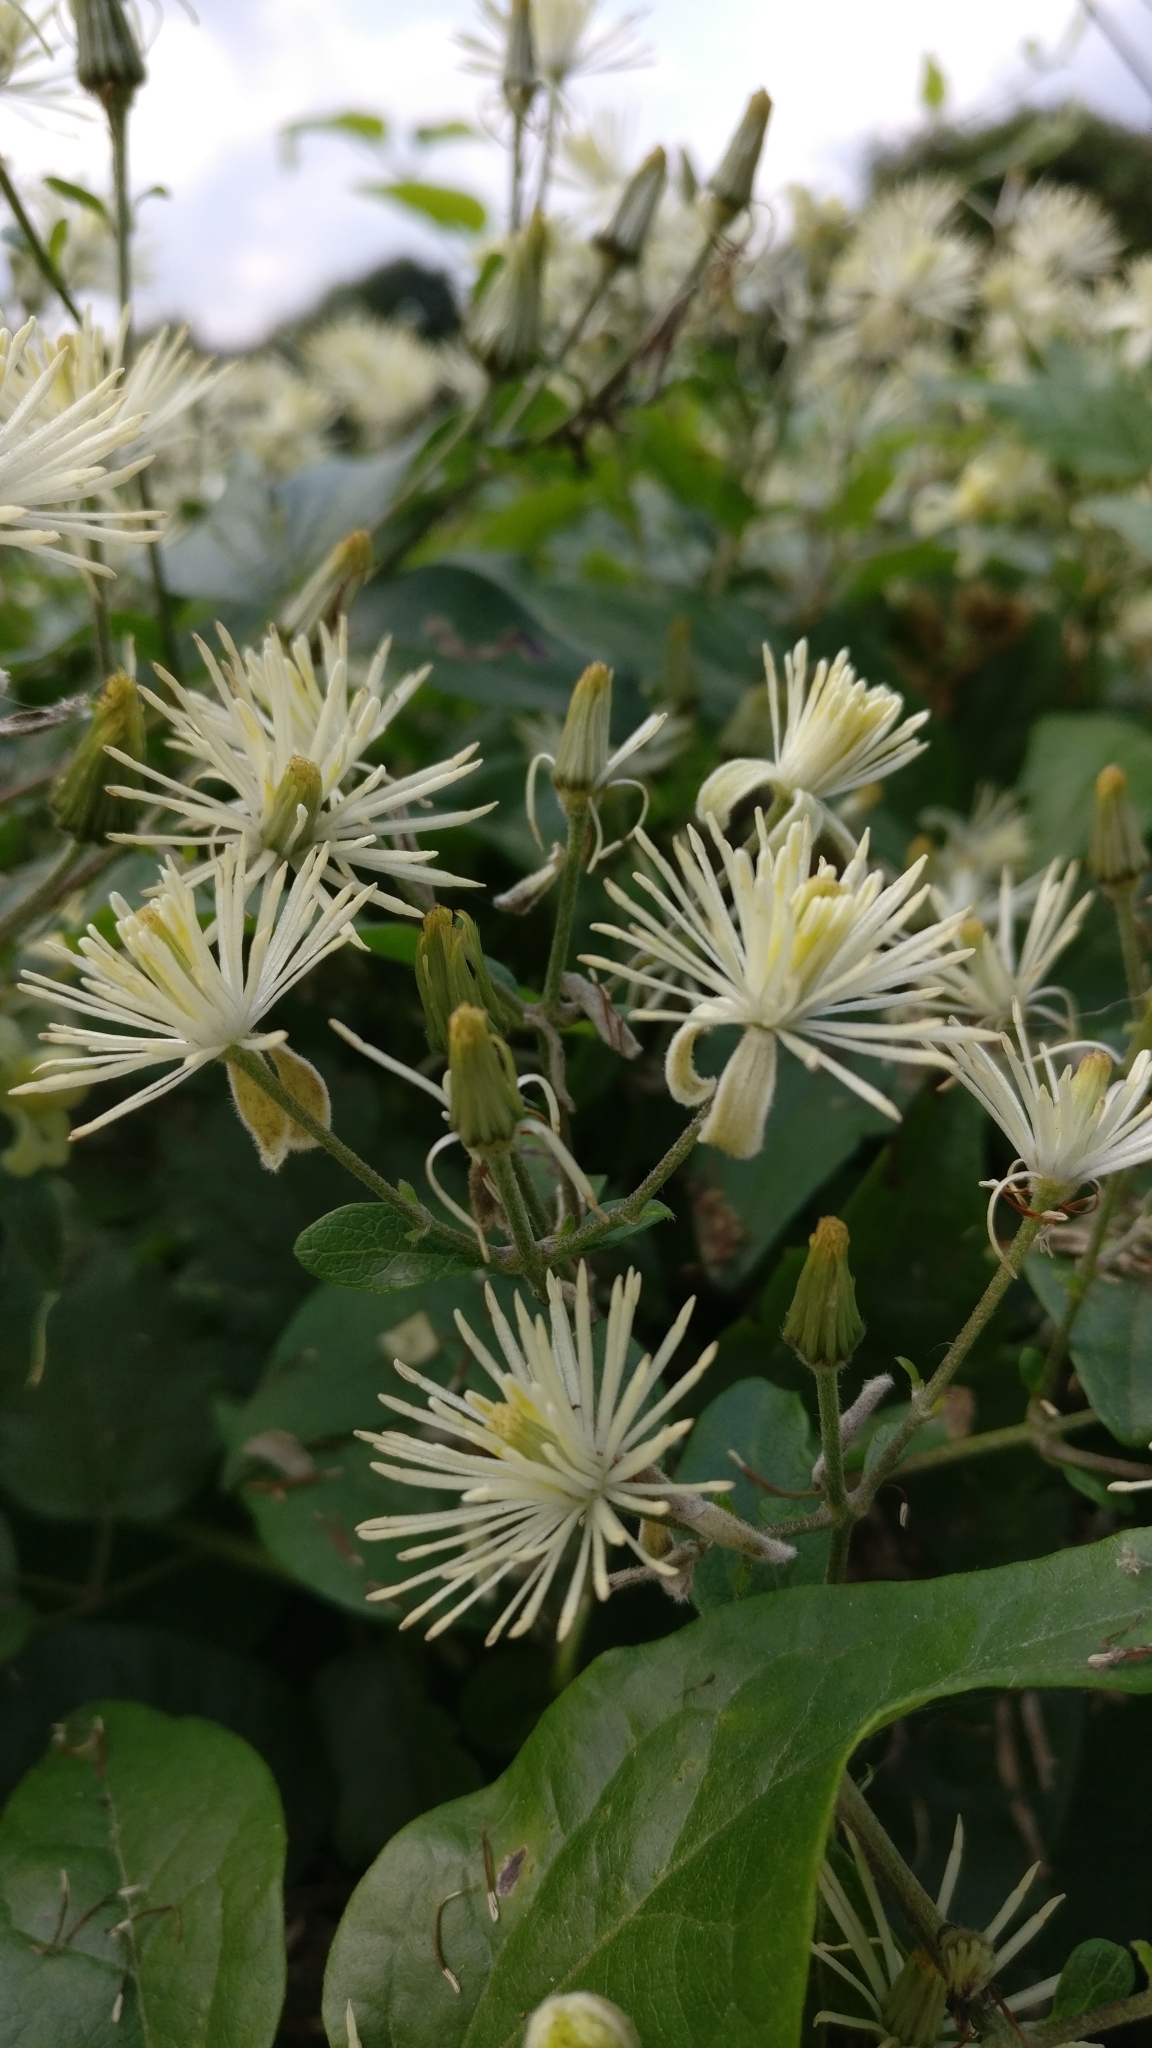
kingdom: Plantae
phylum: Tracheophyta
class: Magnoliopsida
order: Ranunculales
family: Ranunculaceae
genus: Clematis
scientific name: Clematis vitalba
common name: Evergreen clematis
